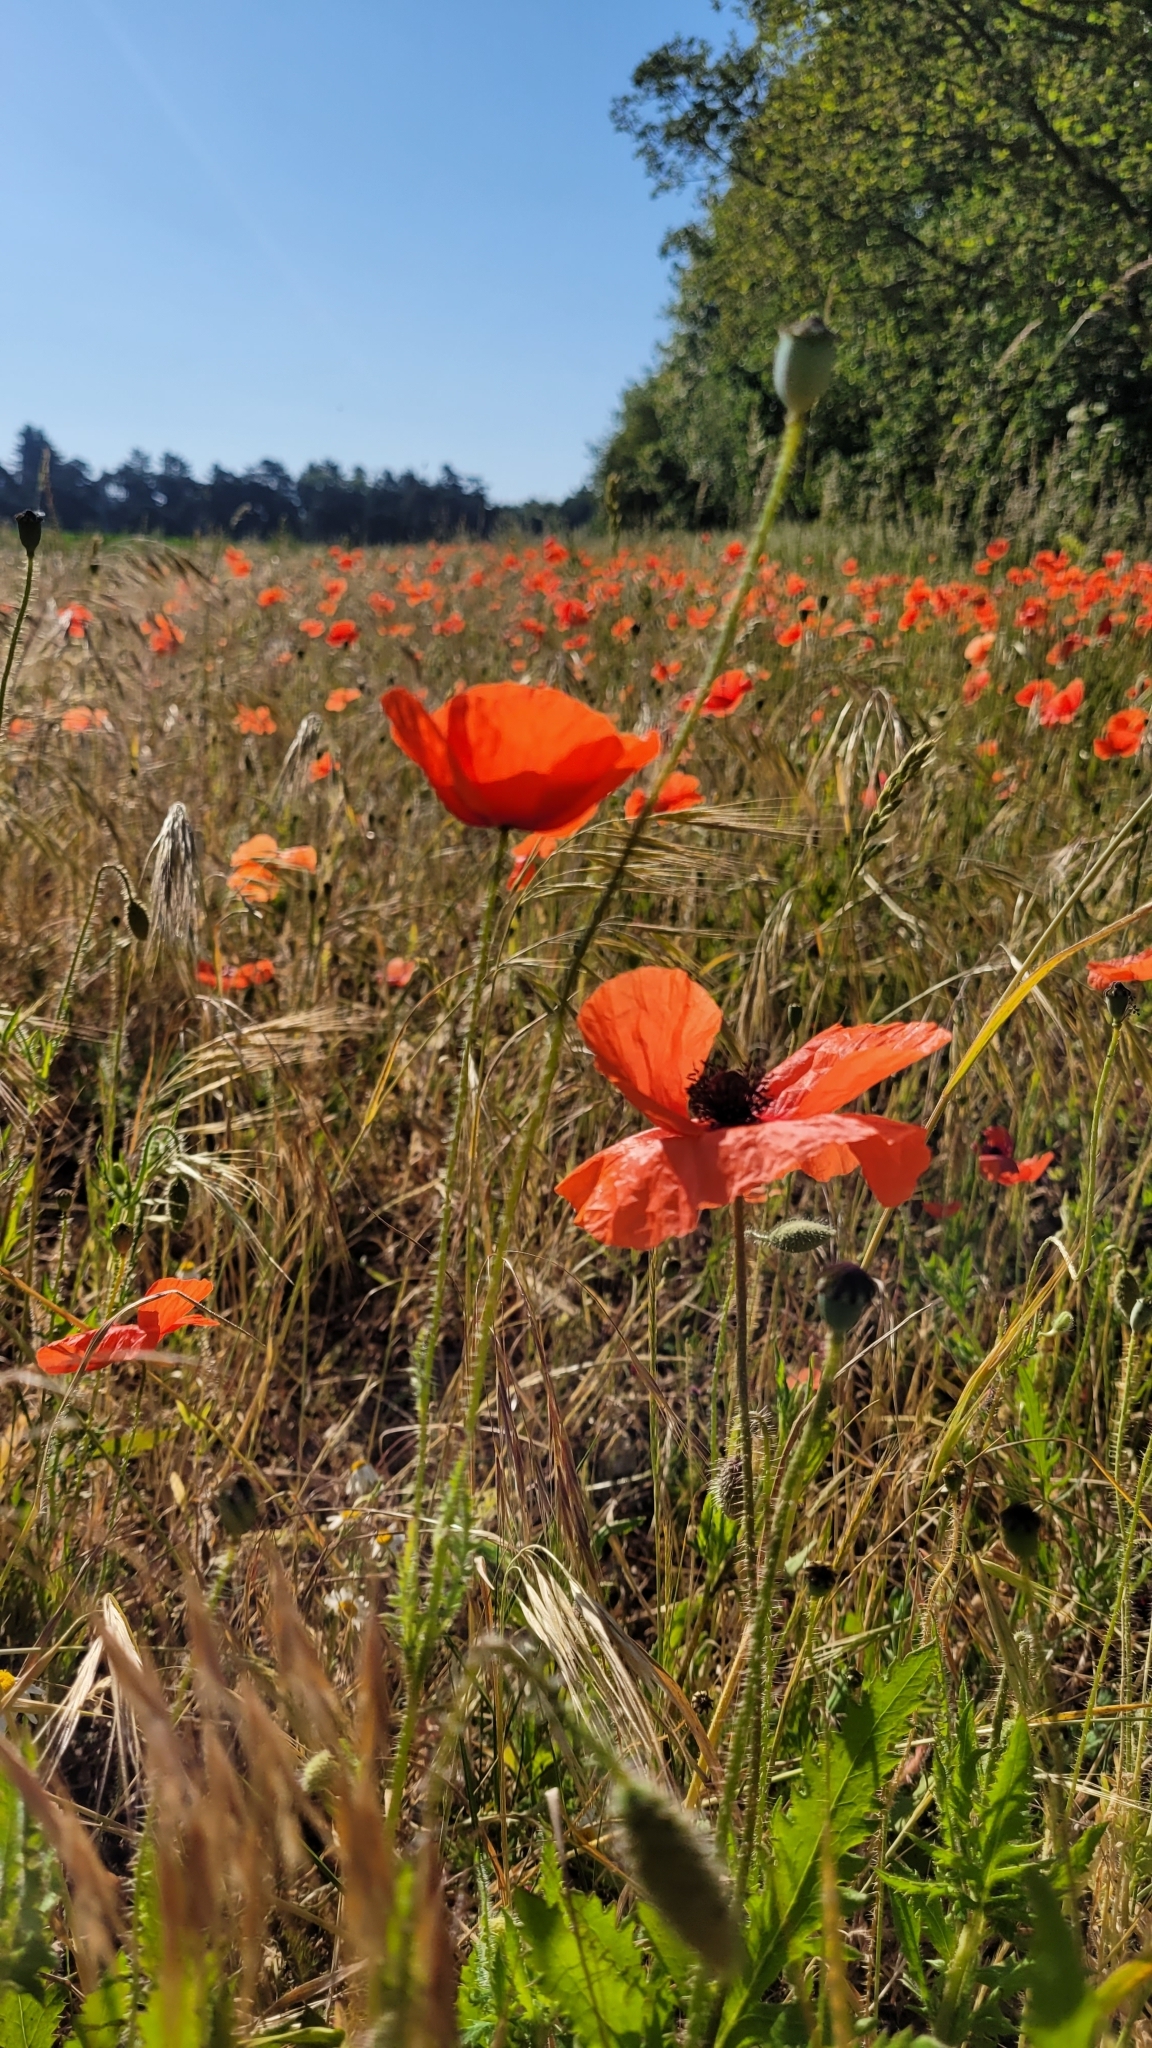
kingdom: Plantae
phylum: Tracheophyta
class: Magnoliopsida
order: Ranunculales
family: Papaveraceae
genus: Papaver
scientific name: Papaver rhoeas
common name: Corn poppy
